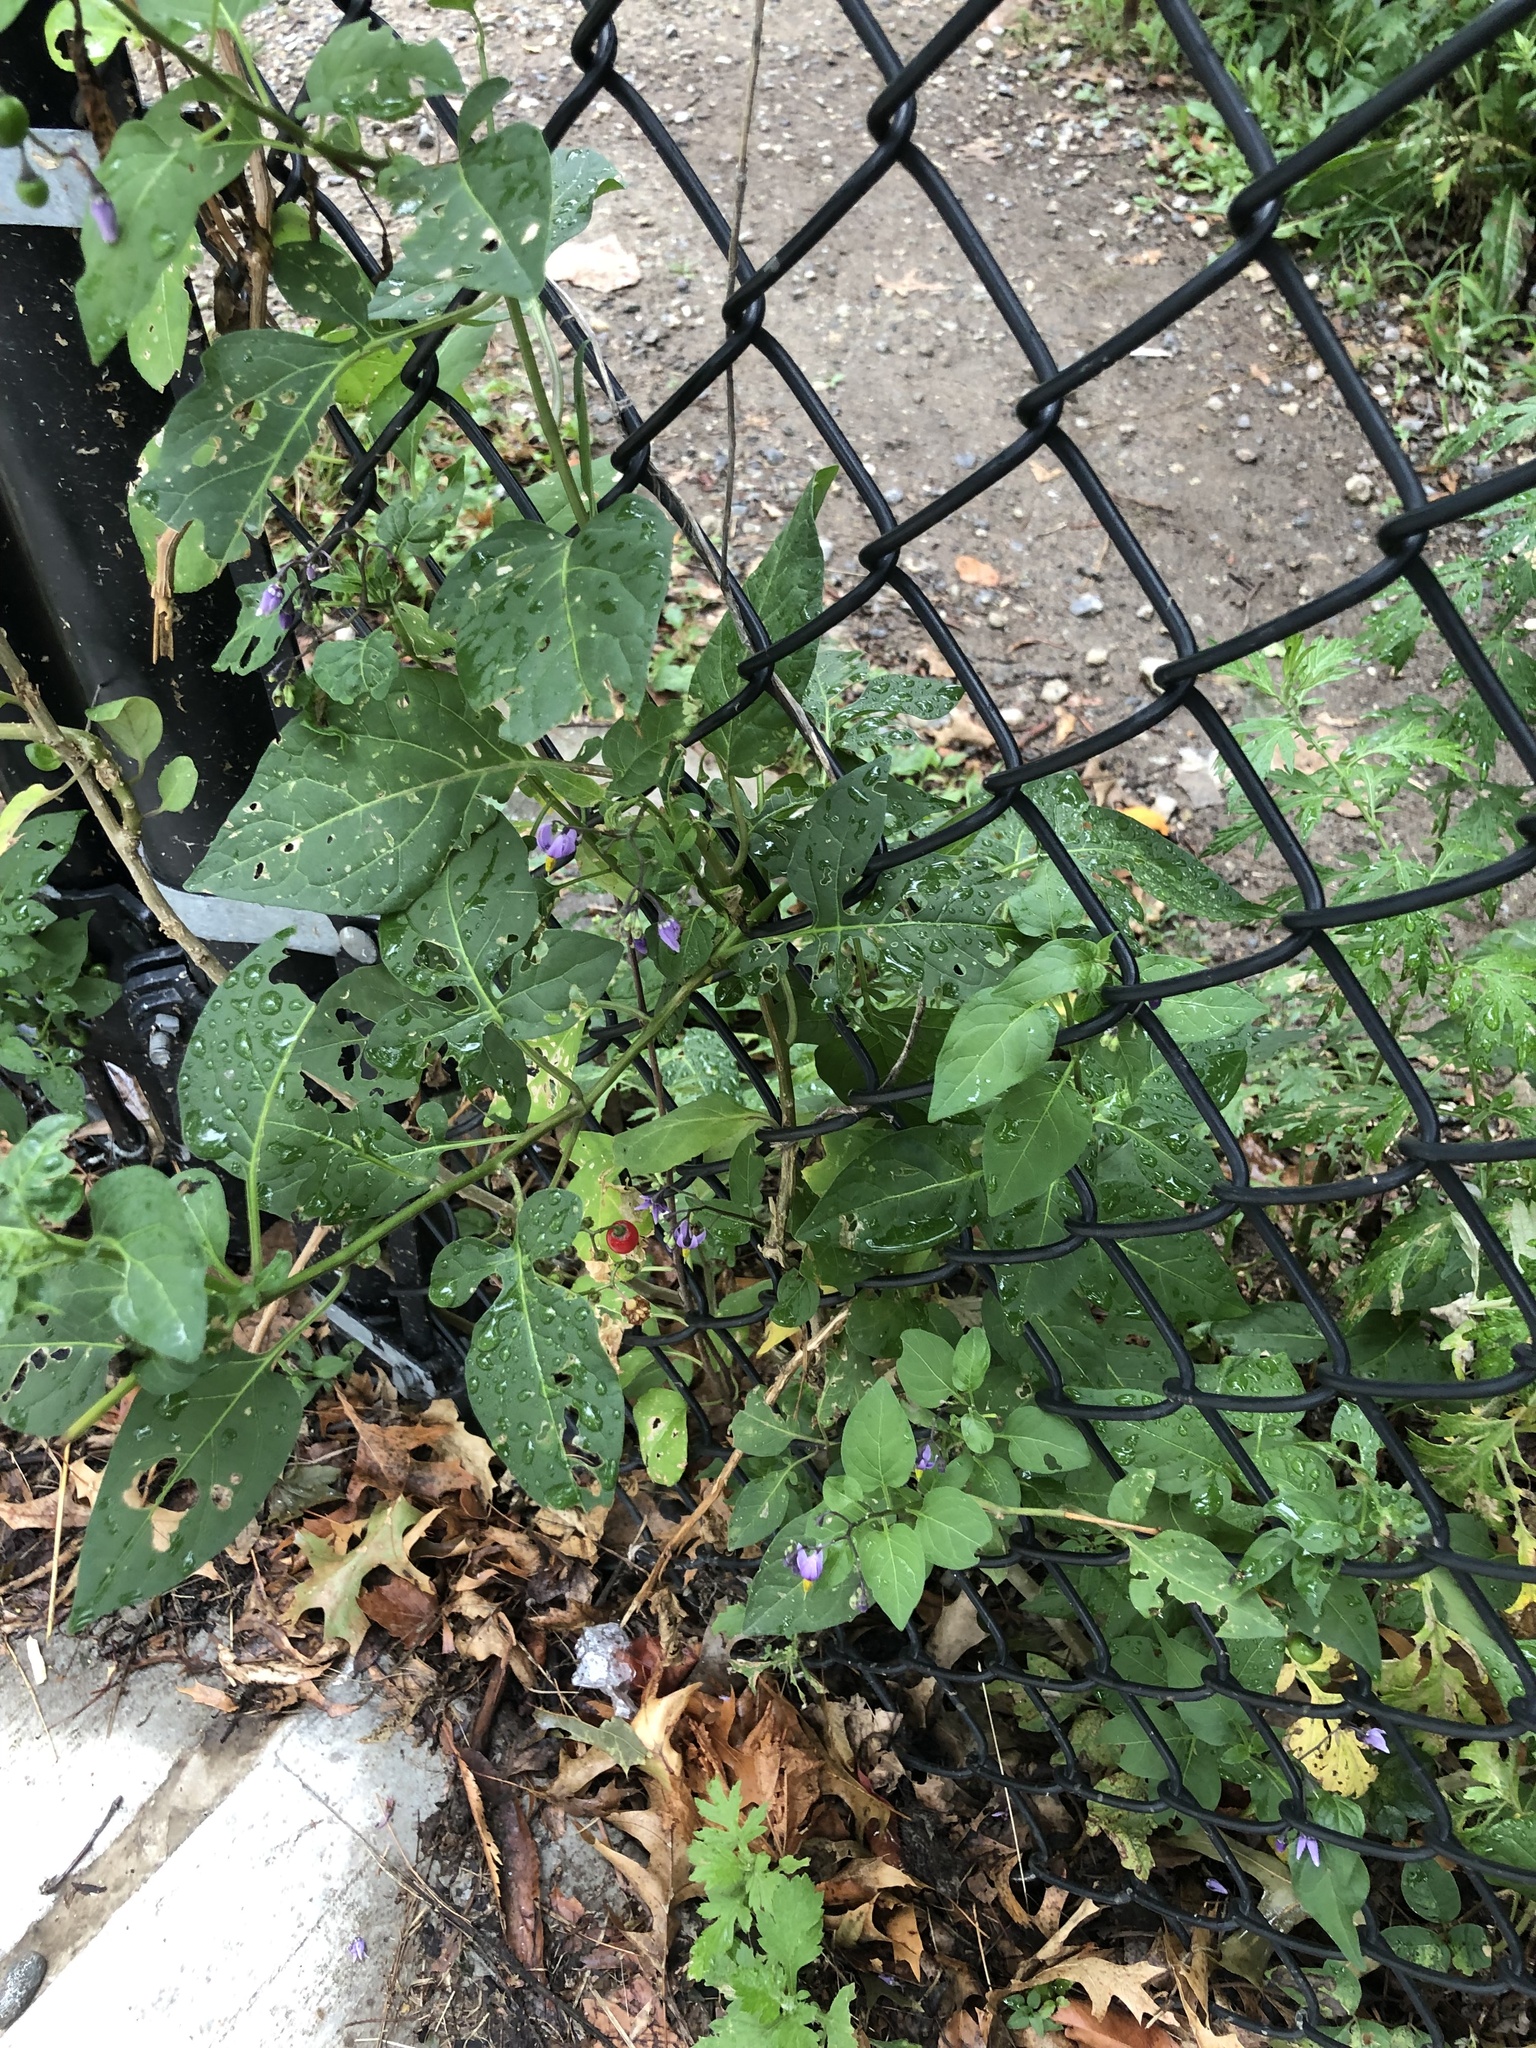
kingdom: Plantae
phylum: Tracheophyta
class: Magnoliopsida
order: Solanales
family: Solanaceae
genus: Solanum
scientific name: Solanum dulcamara
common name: Climbing nightshade
